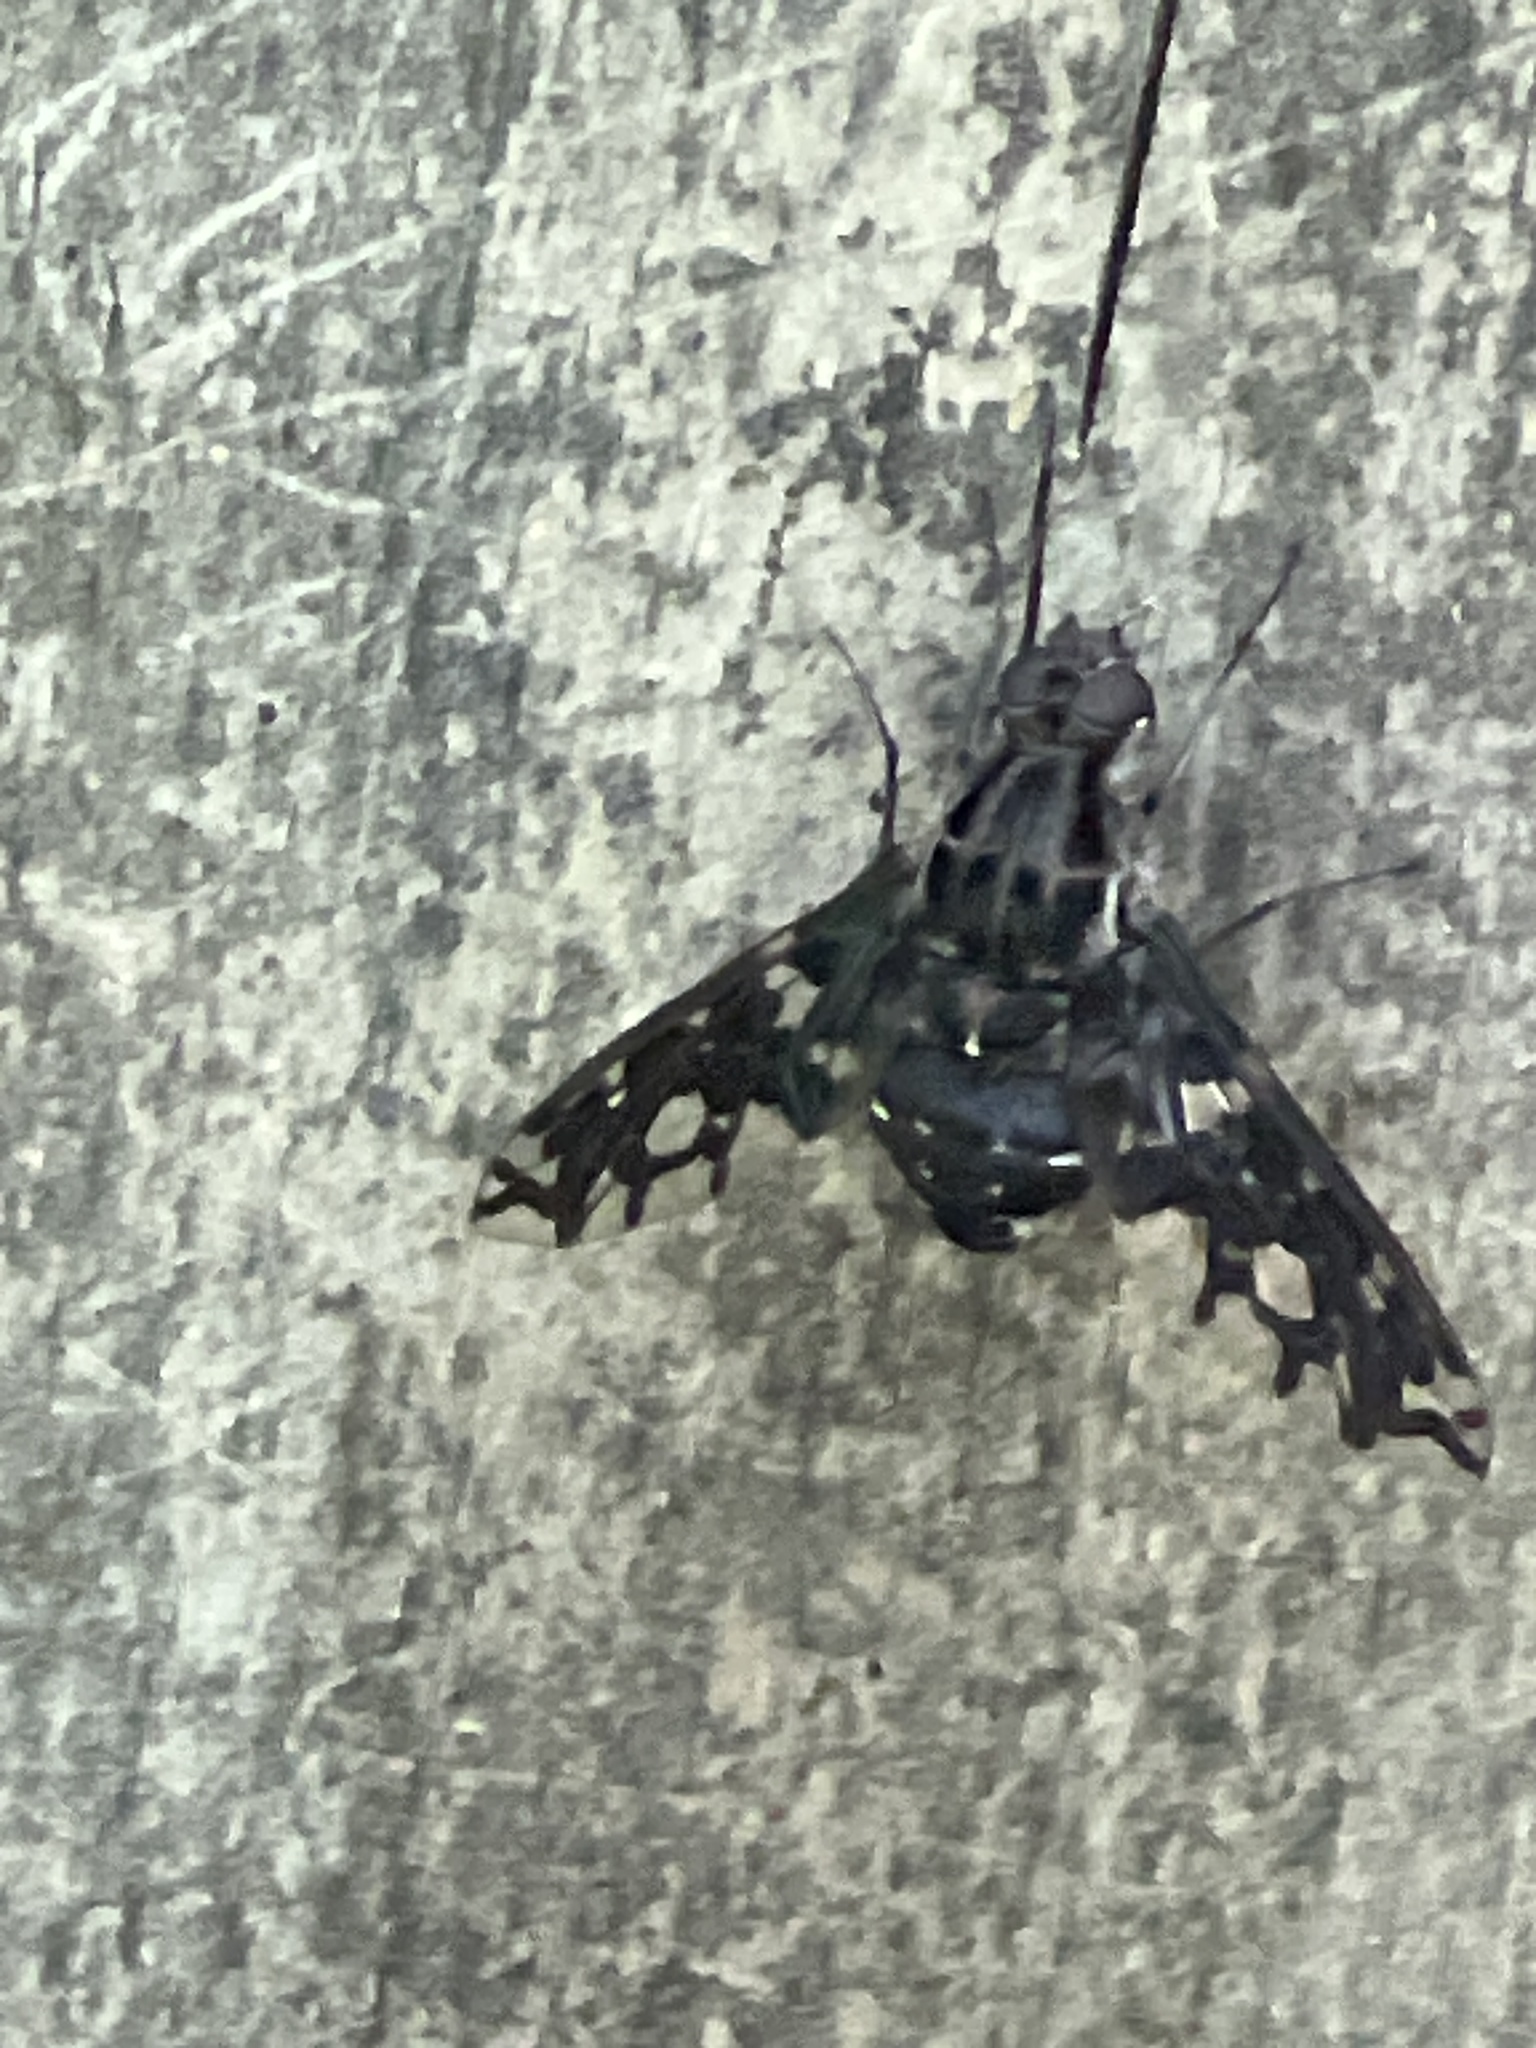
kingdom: Animalia
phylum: Arthropoda
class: Insecta
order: Diptera
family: Bombyliidae
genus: Xenox
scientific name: Xenox tigrinus
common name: Tiger bee fly
